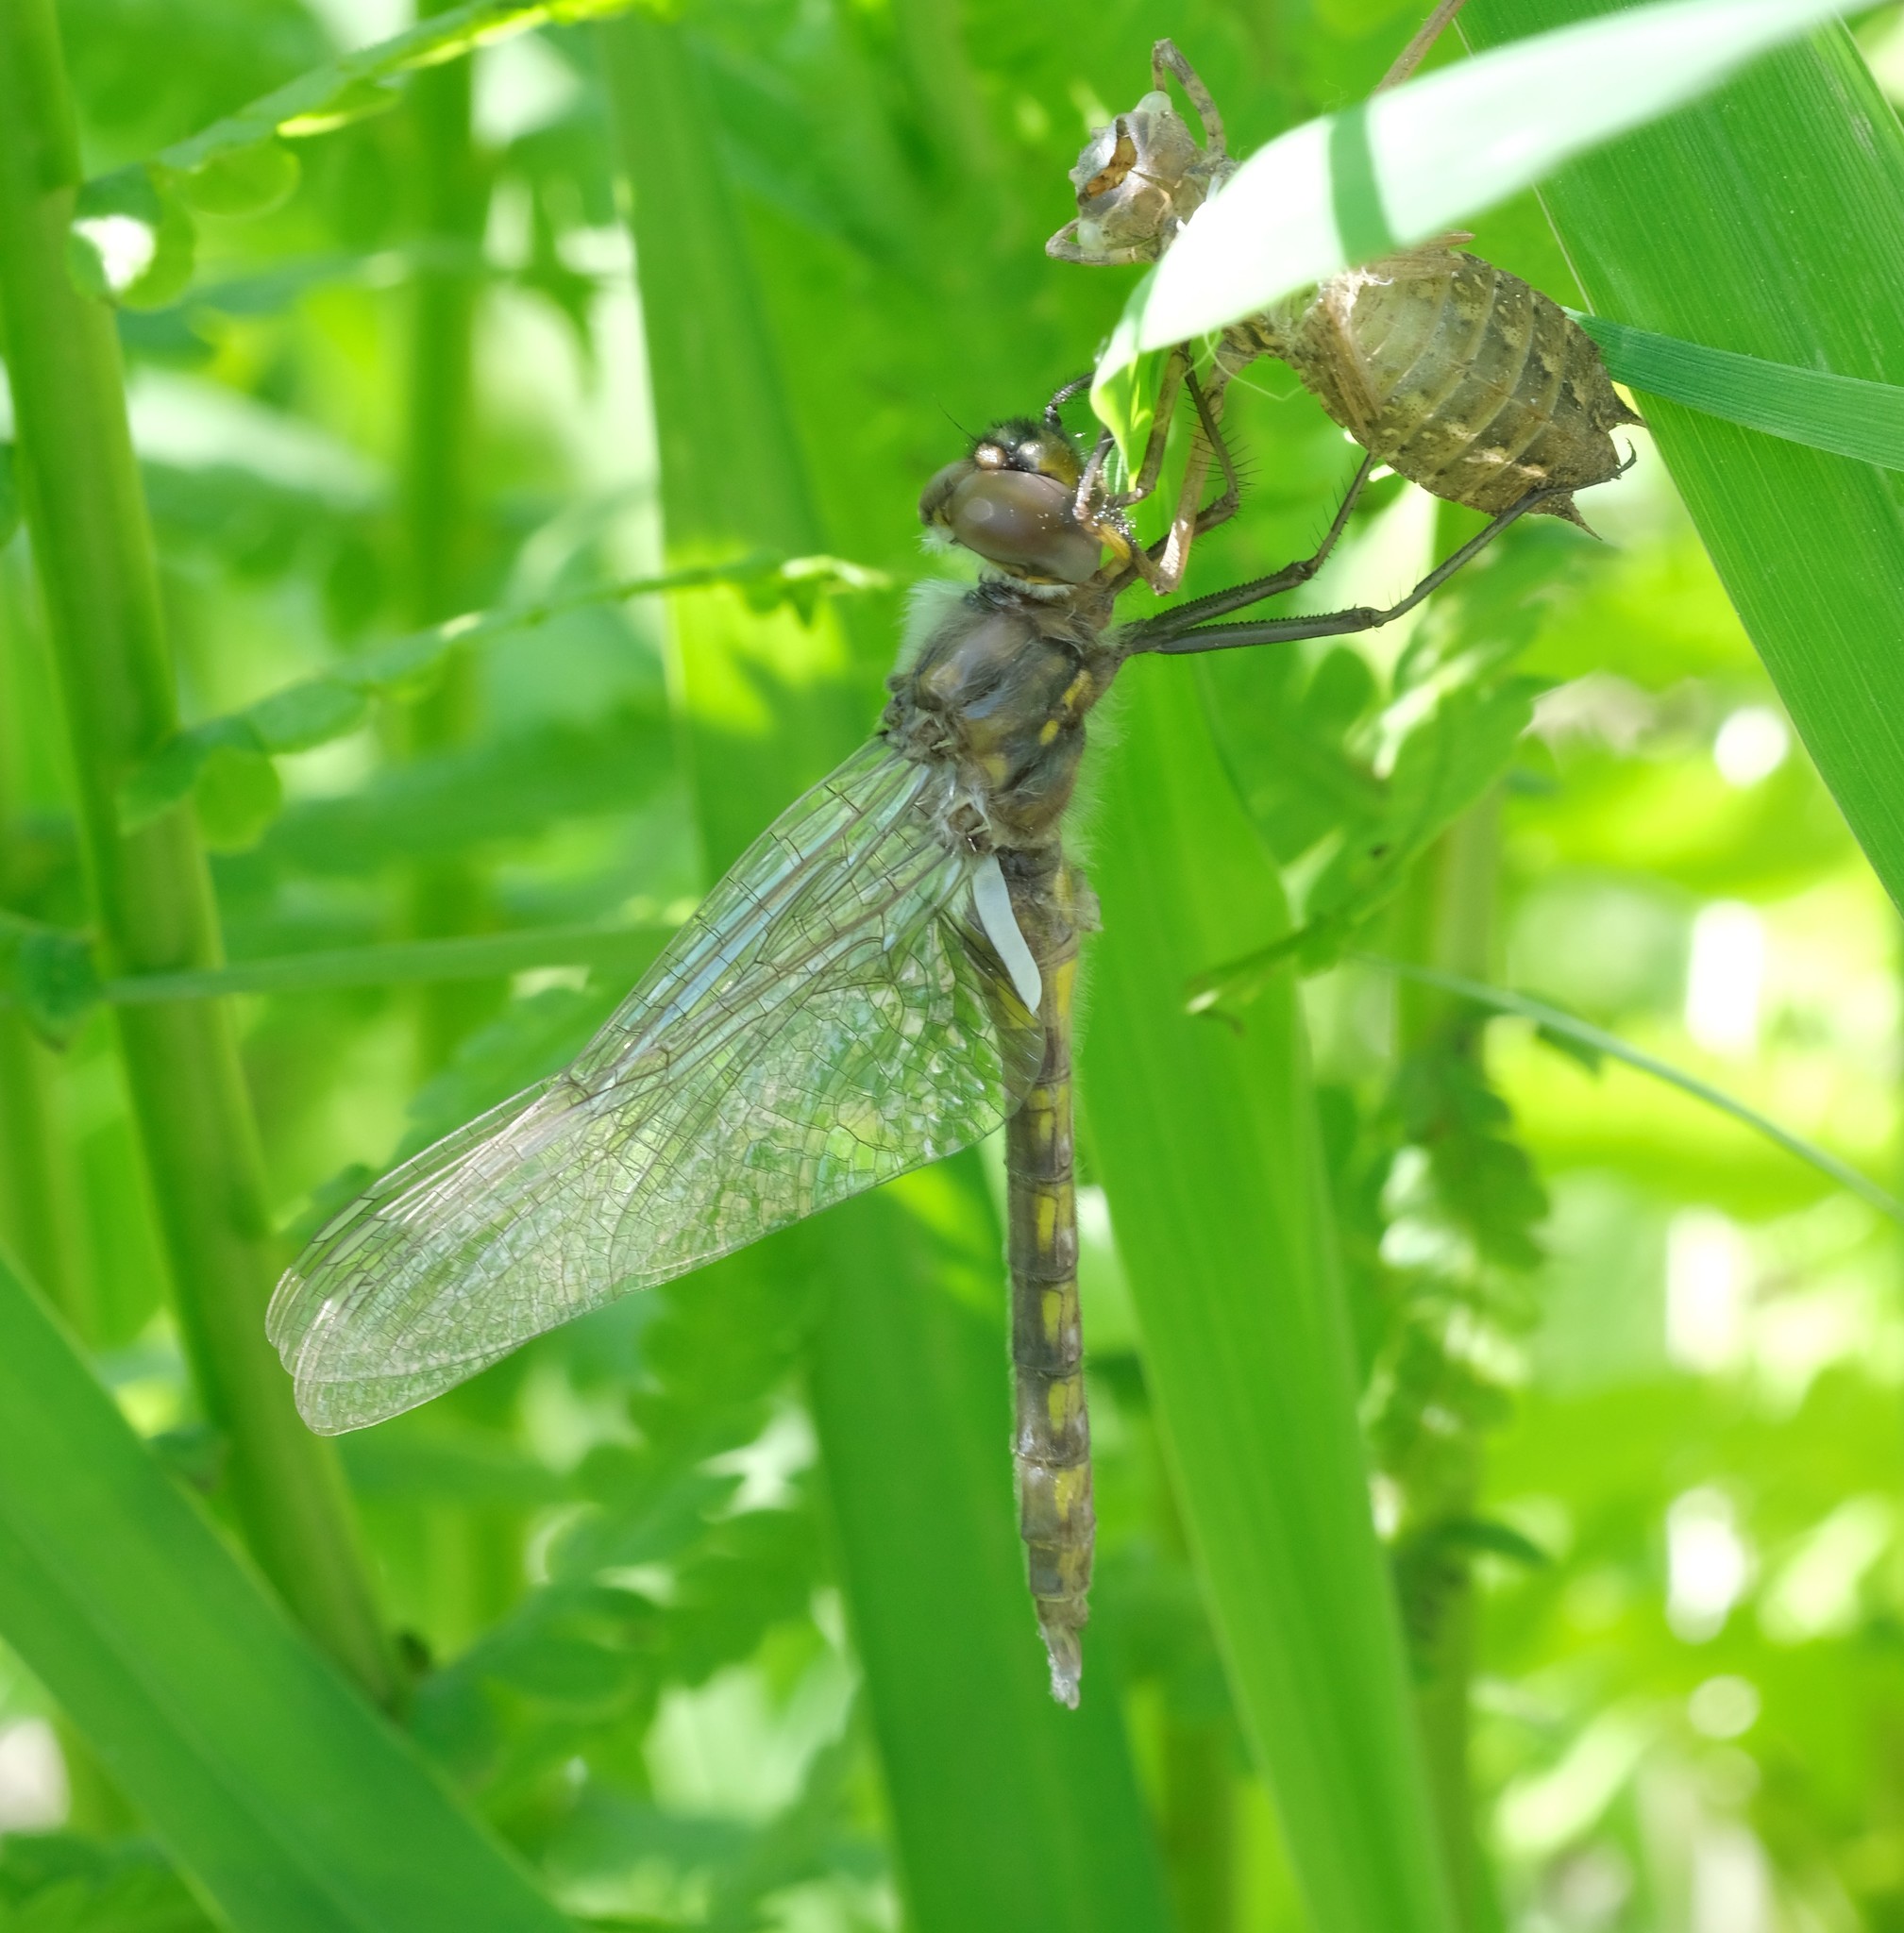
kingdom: Animalia
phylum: Arthropoda
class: Insecta
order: Odonata
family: Corduliidae
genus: Epitheca
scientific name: Epitheca cynosura
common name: Common baskettail
